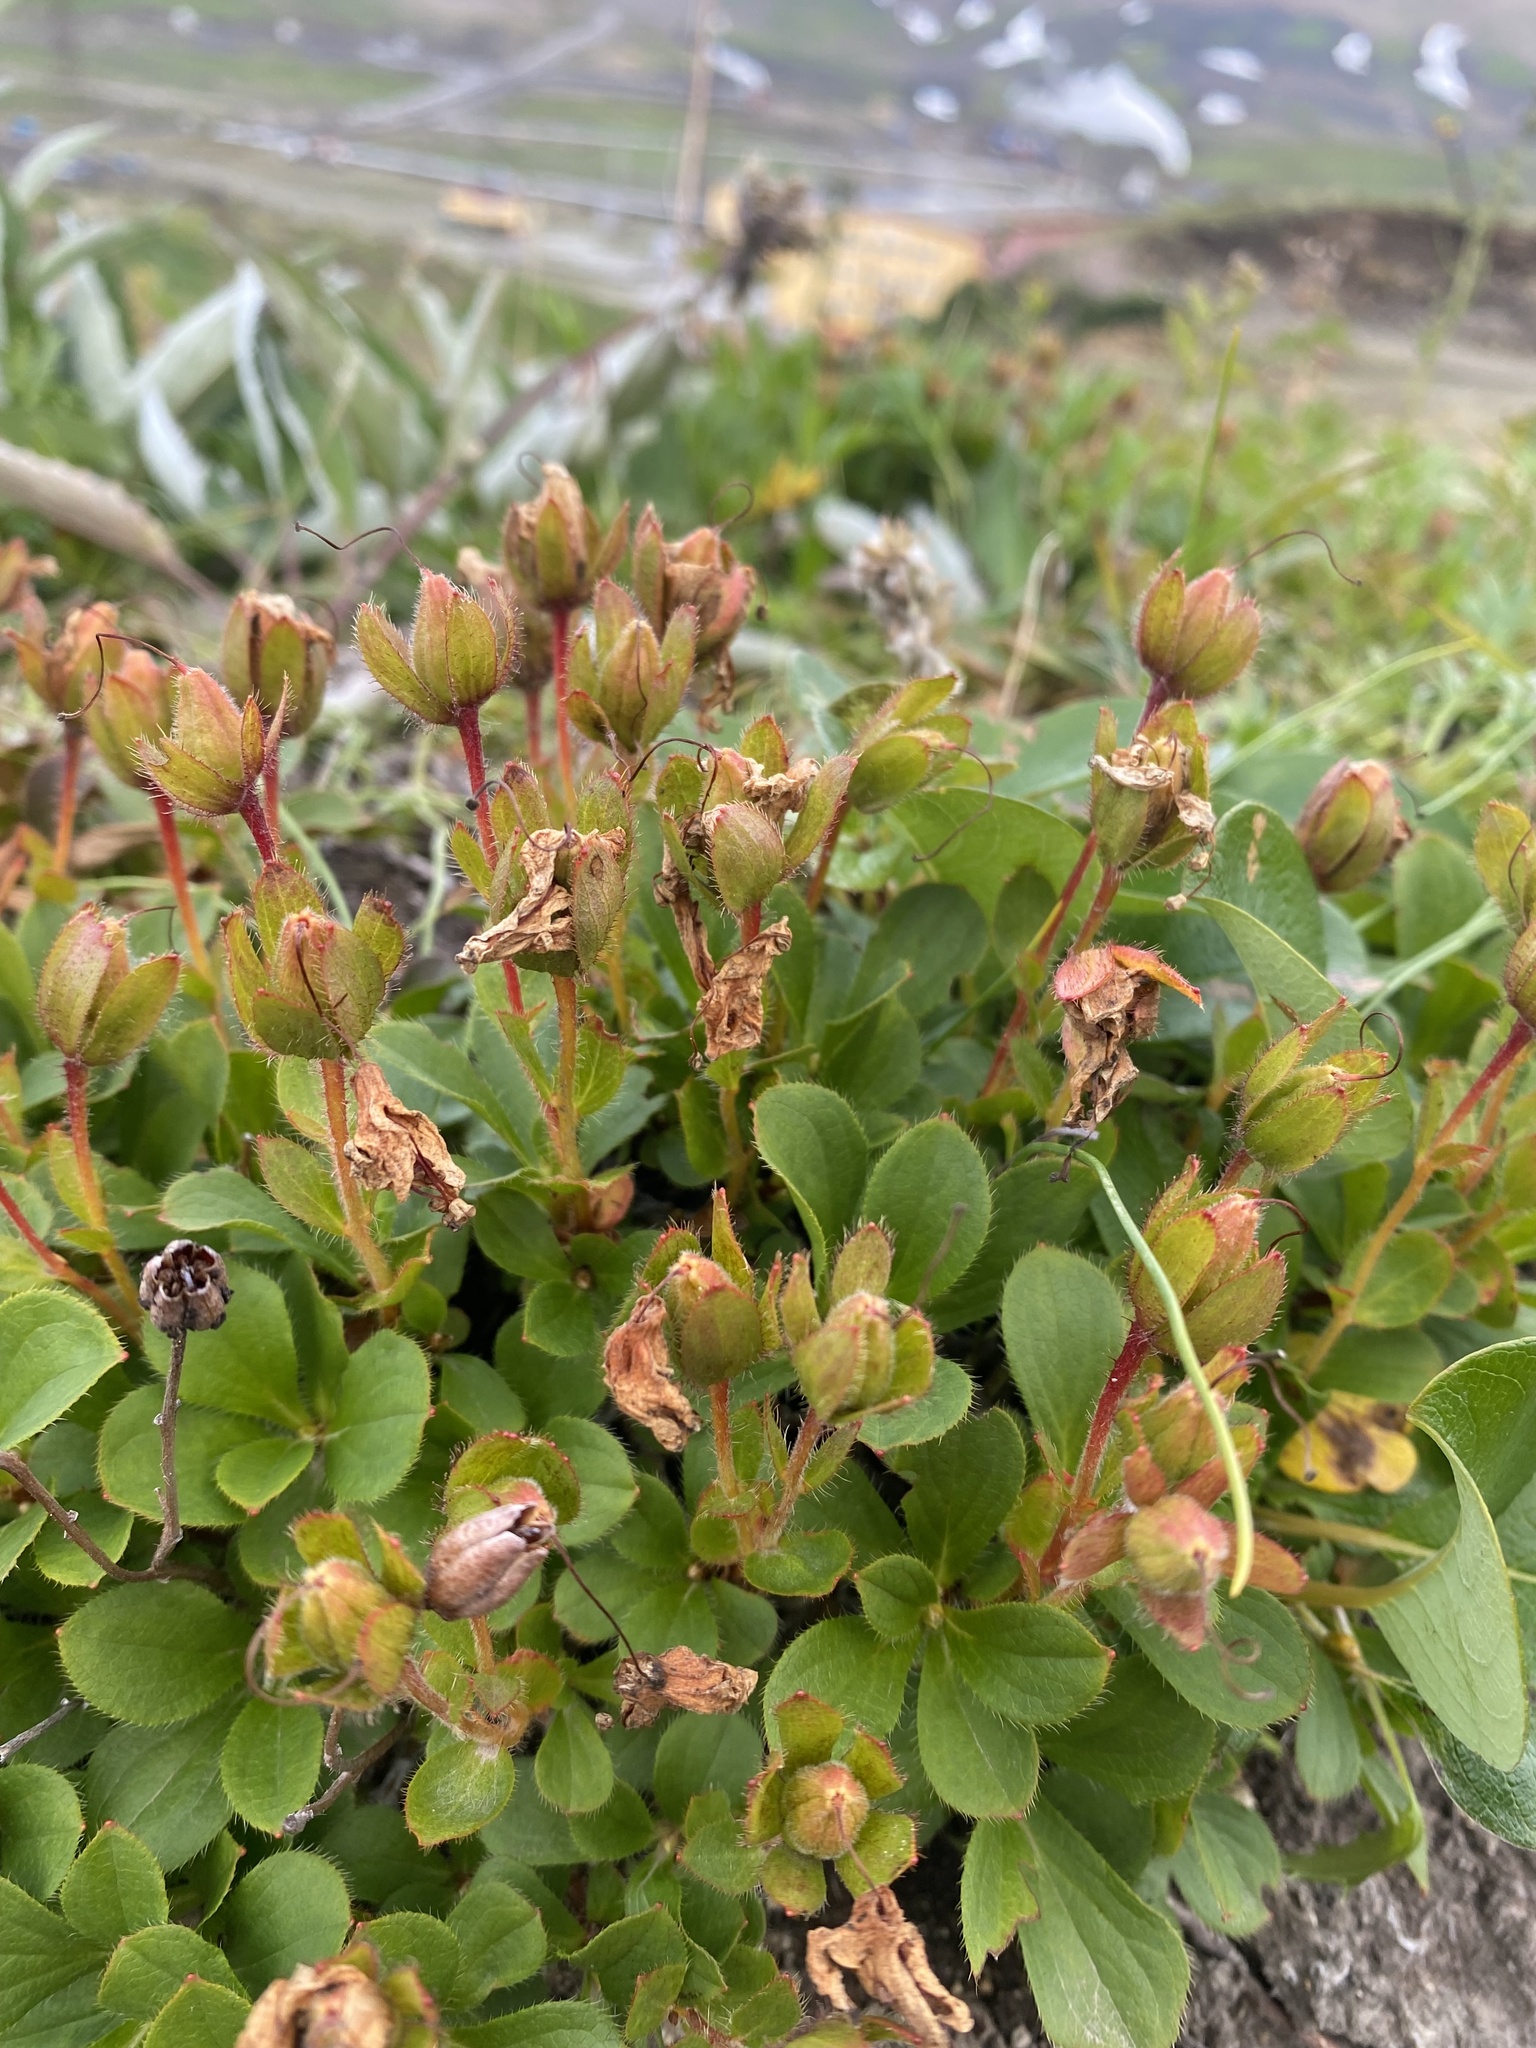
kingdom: Plantae
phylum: Tracheophyta
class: Magnoliopsida
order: Ericales
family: Ericaceae
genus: Rhododendron
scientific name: Rhododendron camtschaticum
